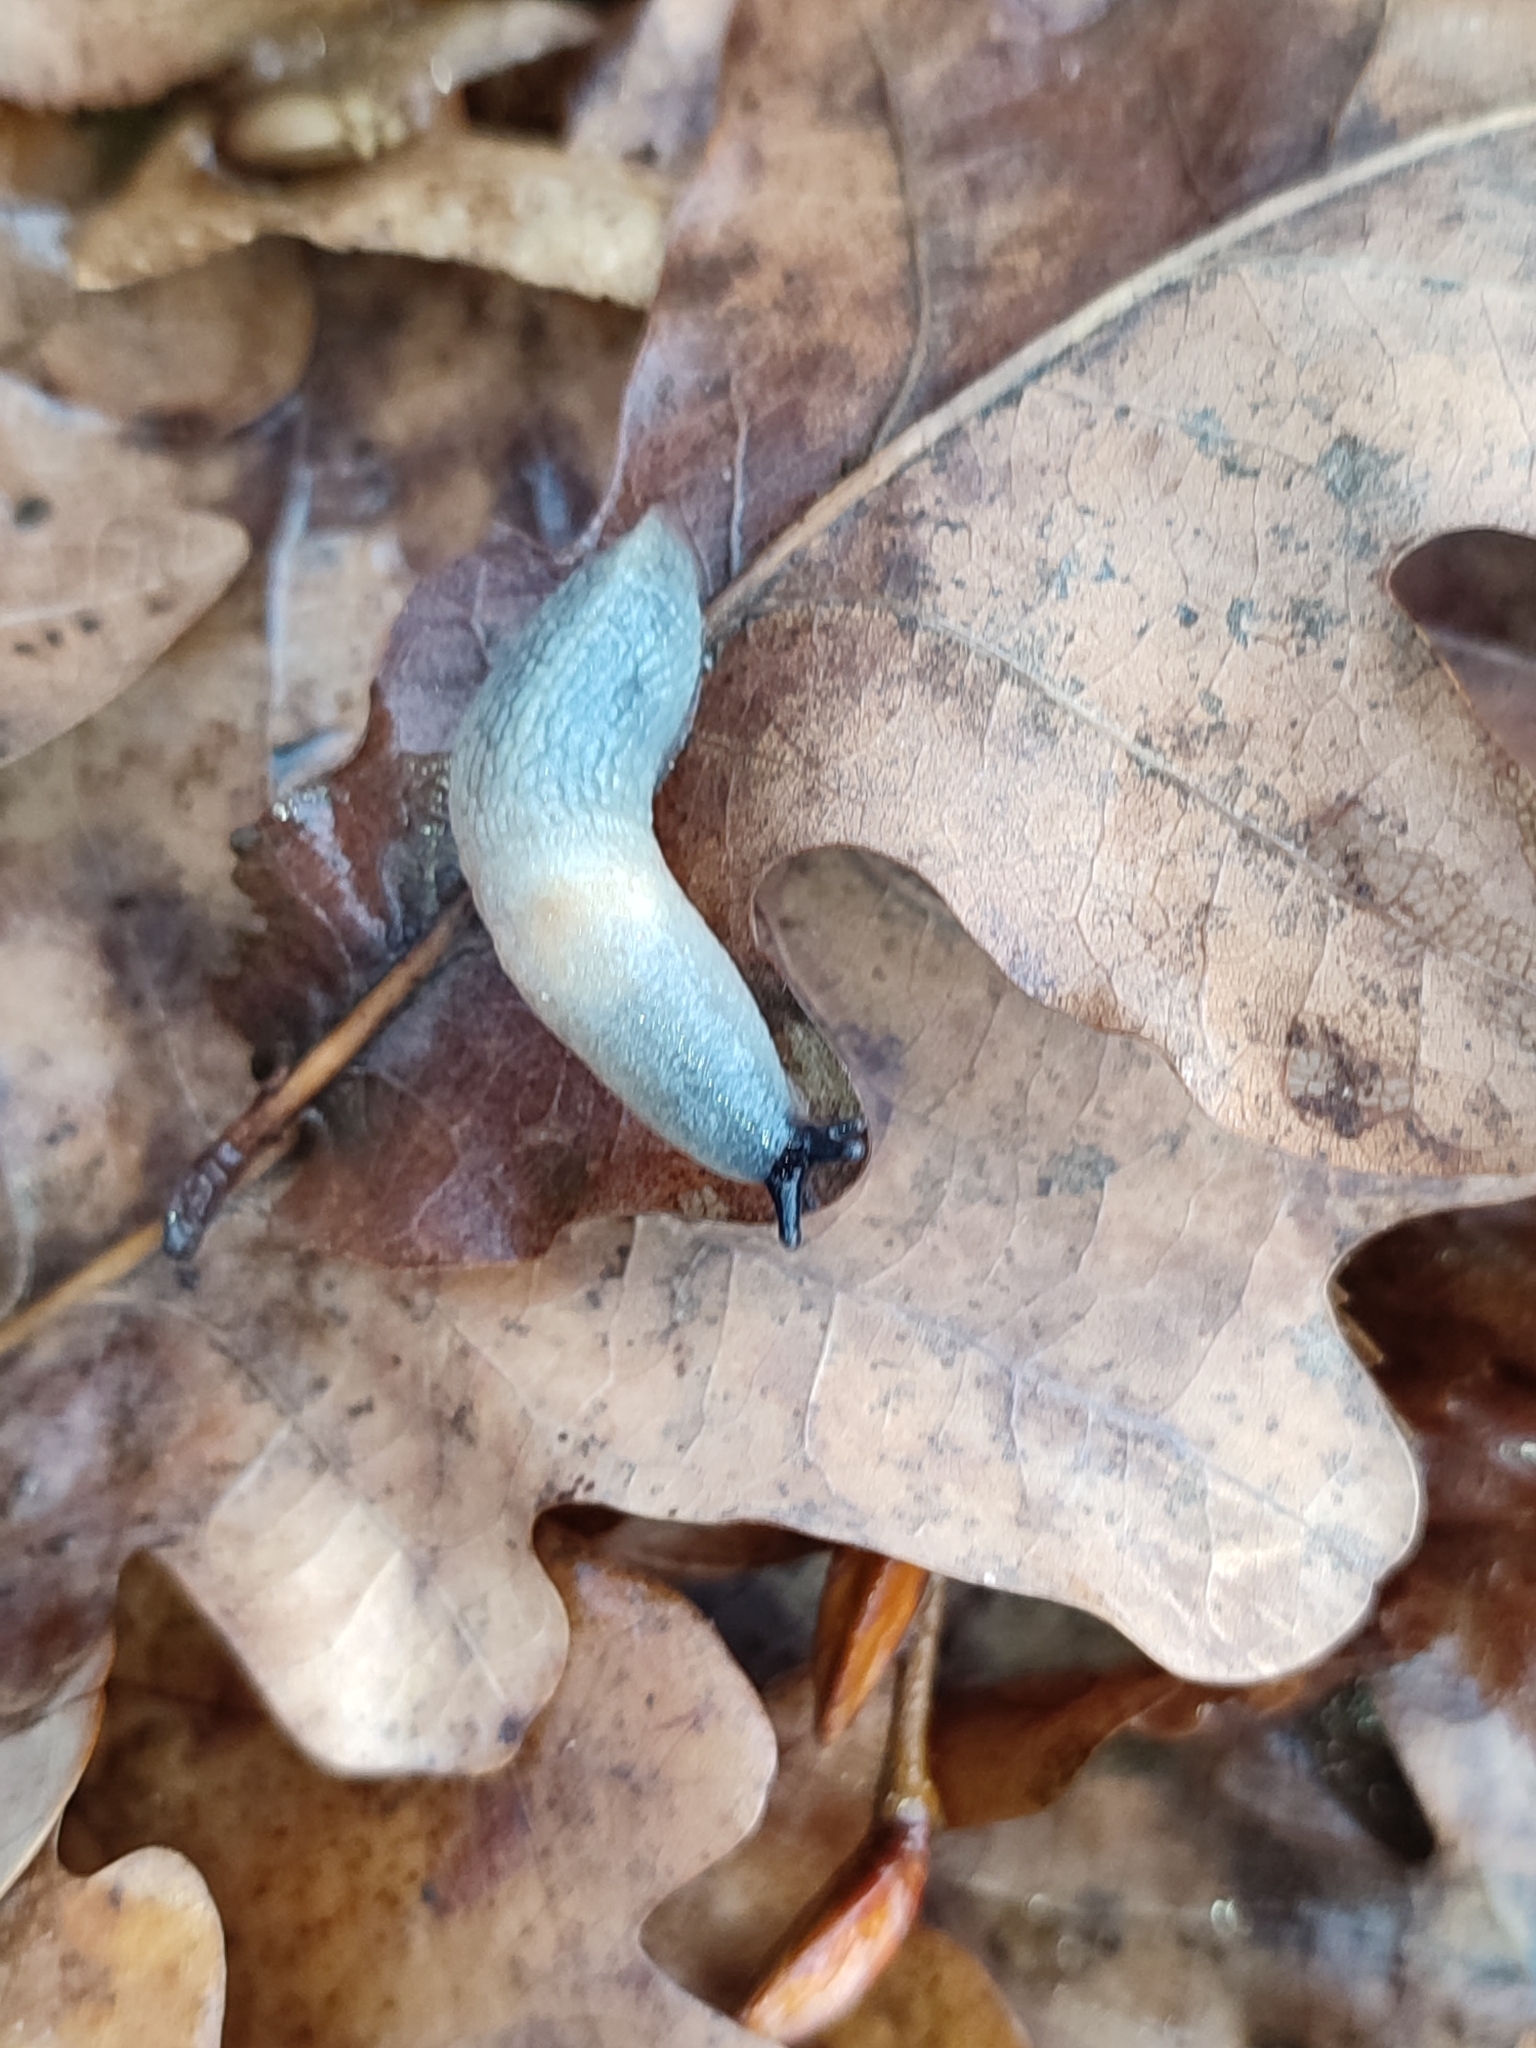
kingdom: Animalia
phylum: Mollusca
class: Gastropoda
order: Stylommatophora
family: Agriolimacidae
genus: Krynickillus
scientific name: Krynickillus melanocephalus
